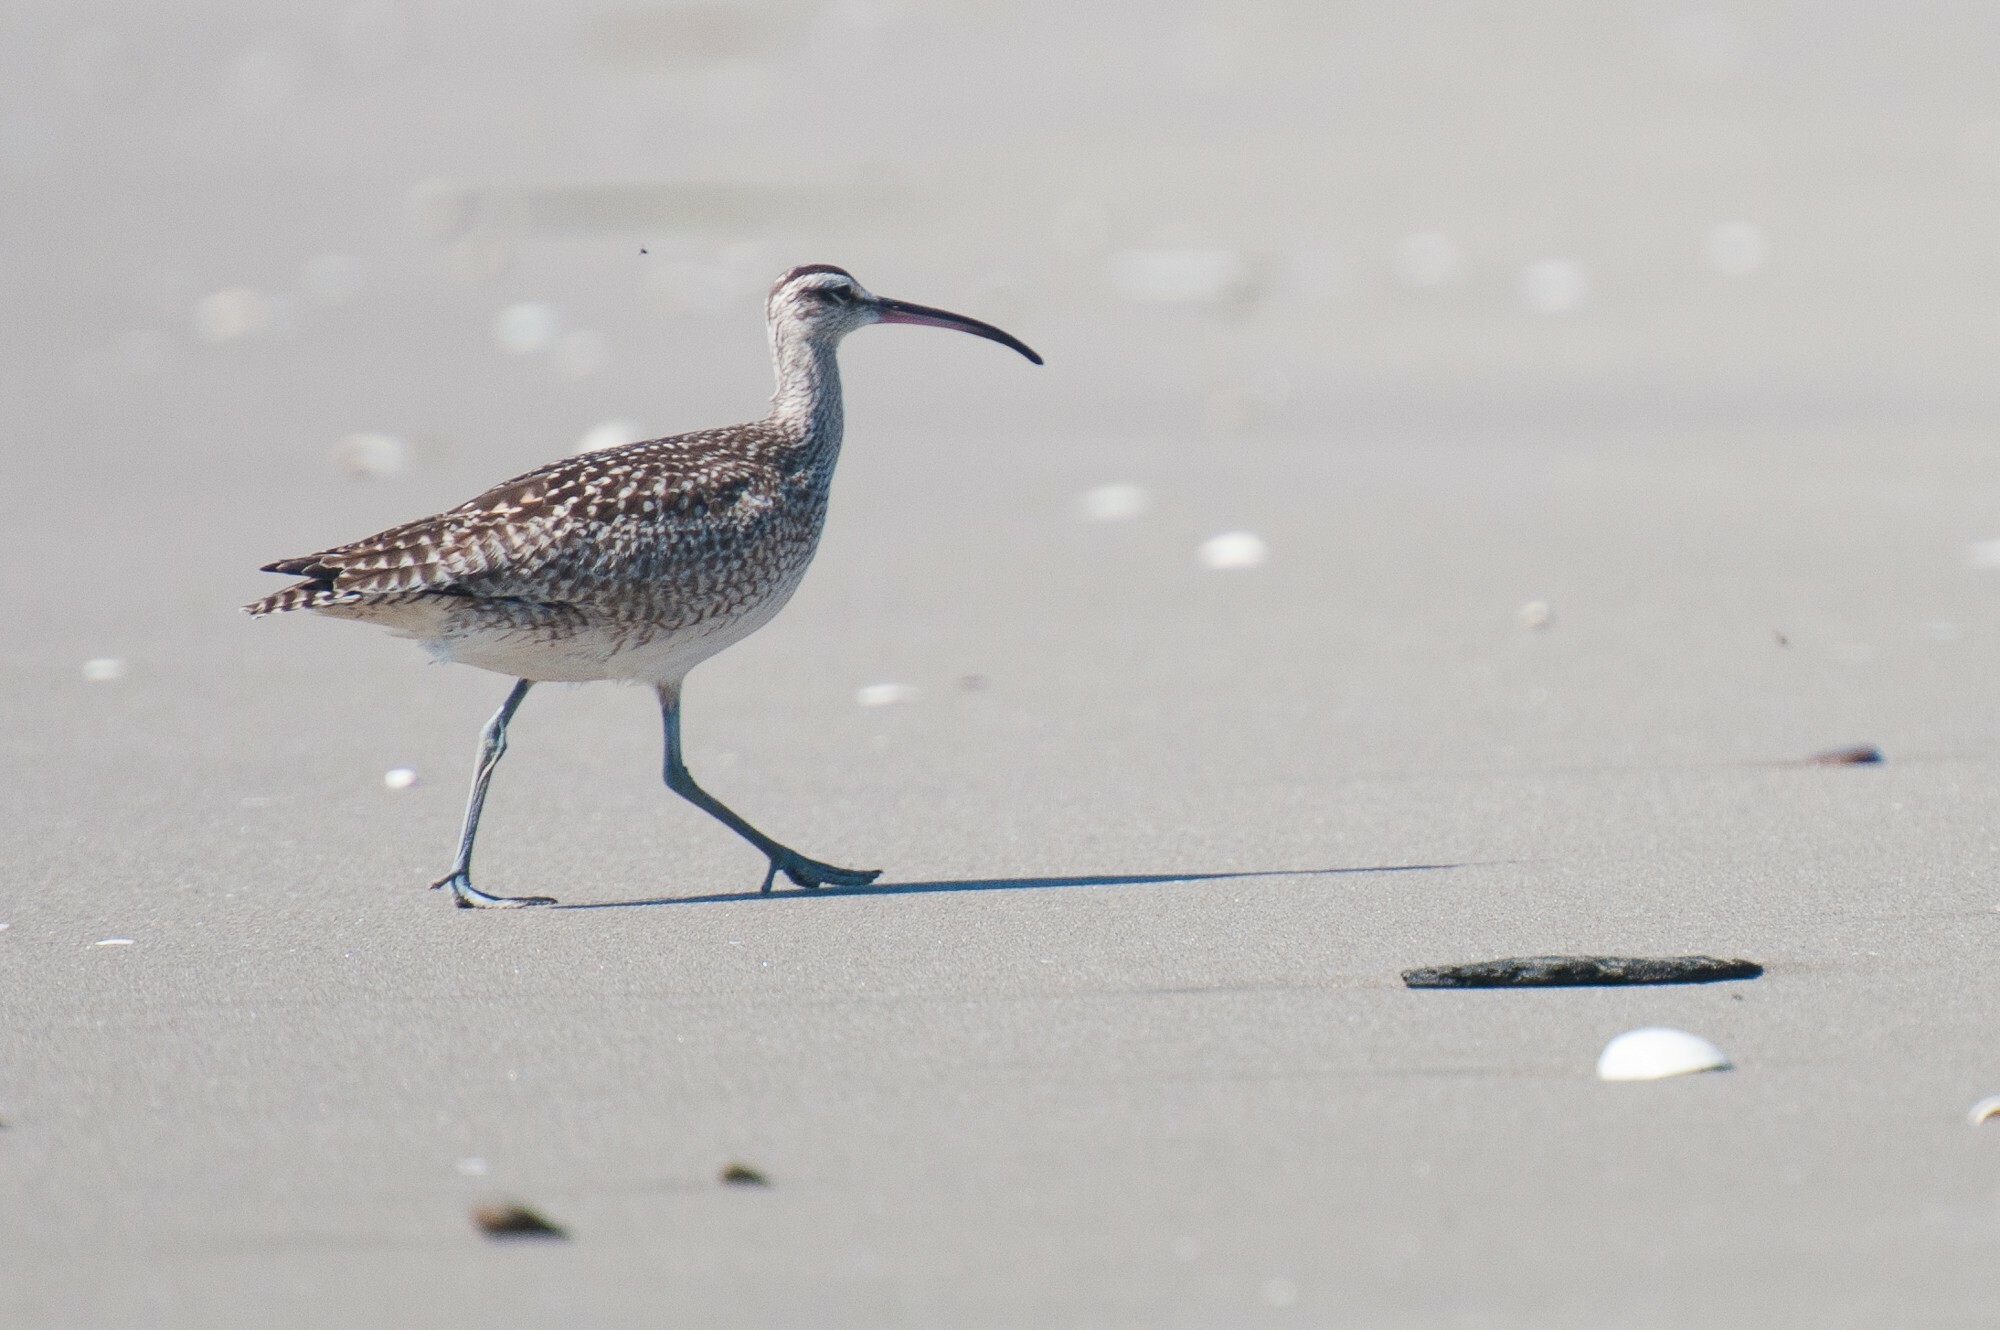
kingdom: Animalia
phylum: Chordata
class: Aves
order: Charadriiformes
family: Scolopacidae
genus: Numenius
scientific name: Numenius phaeopus
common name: Whimbrel
